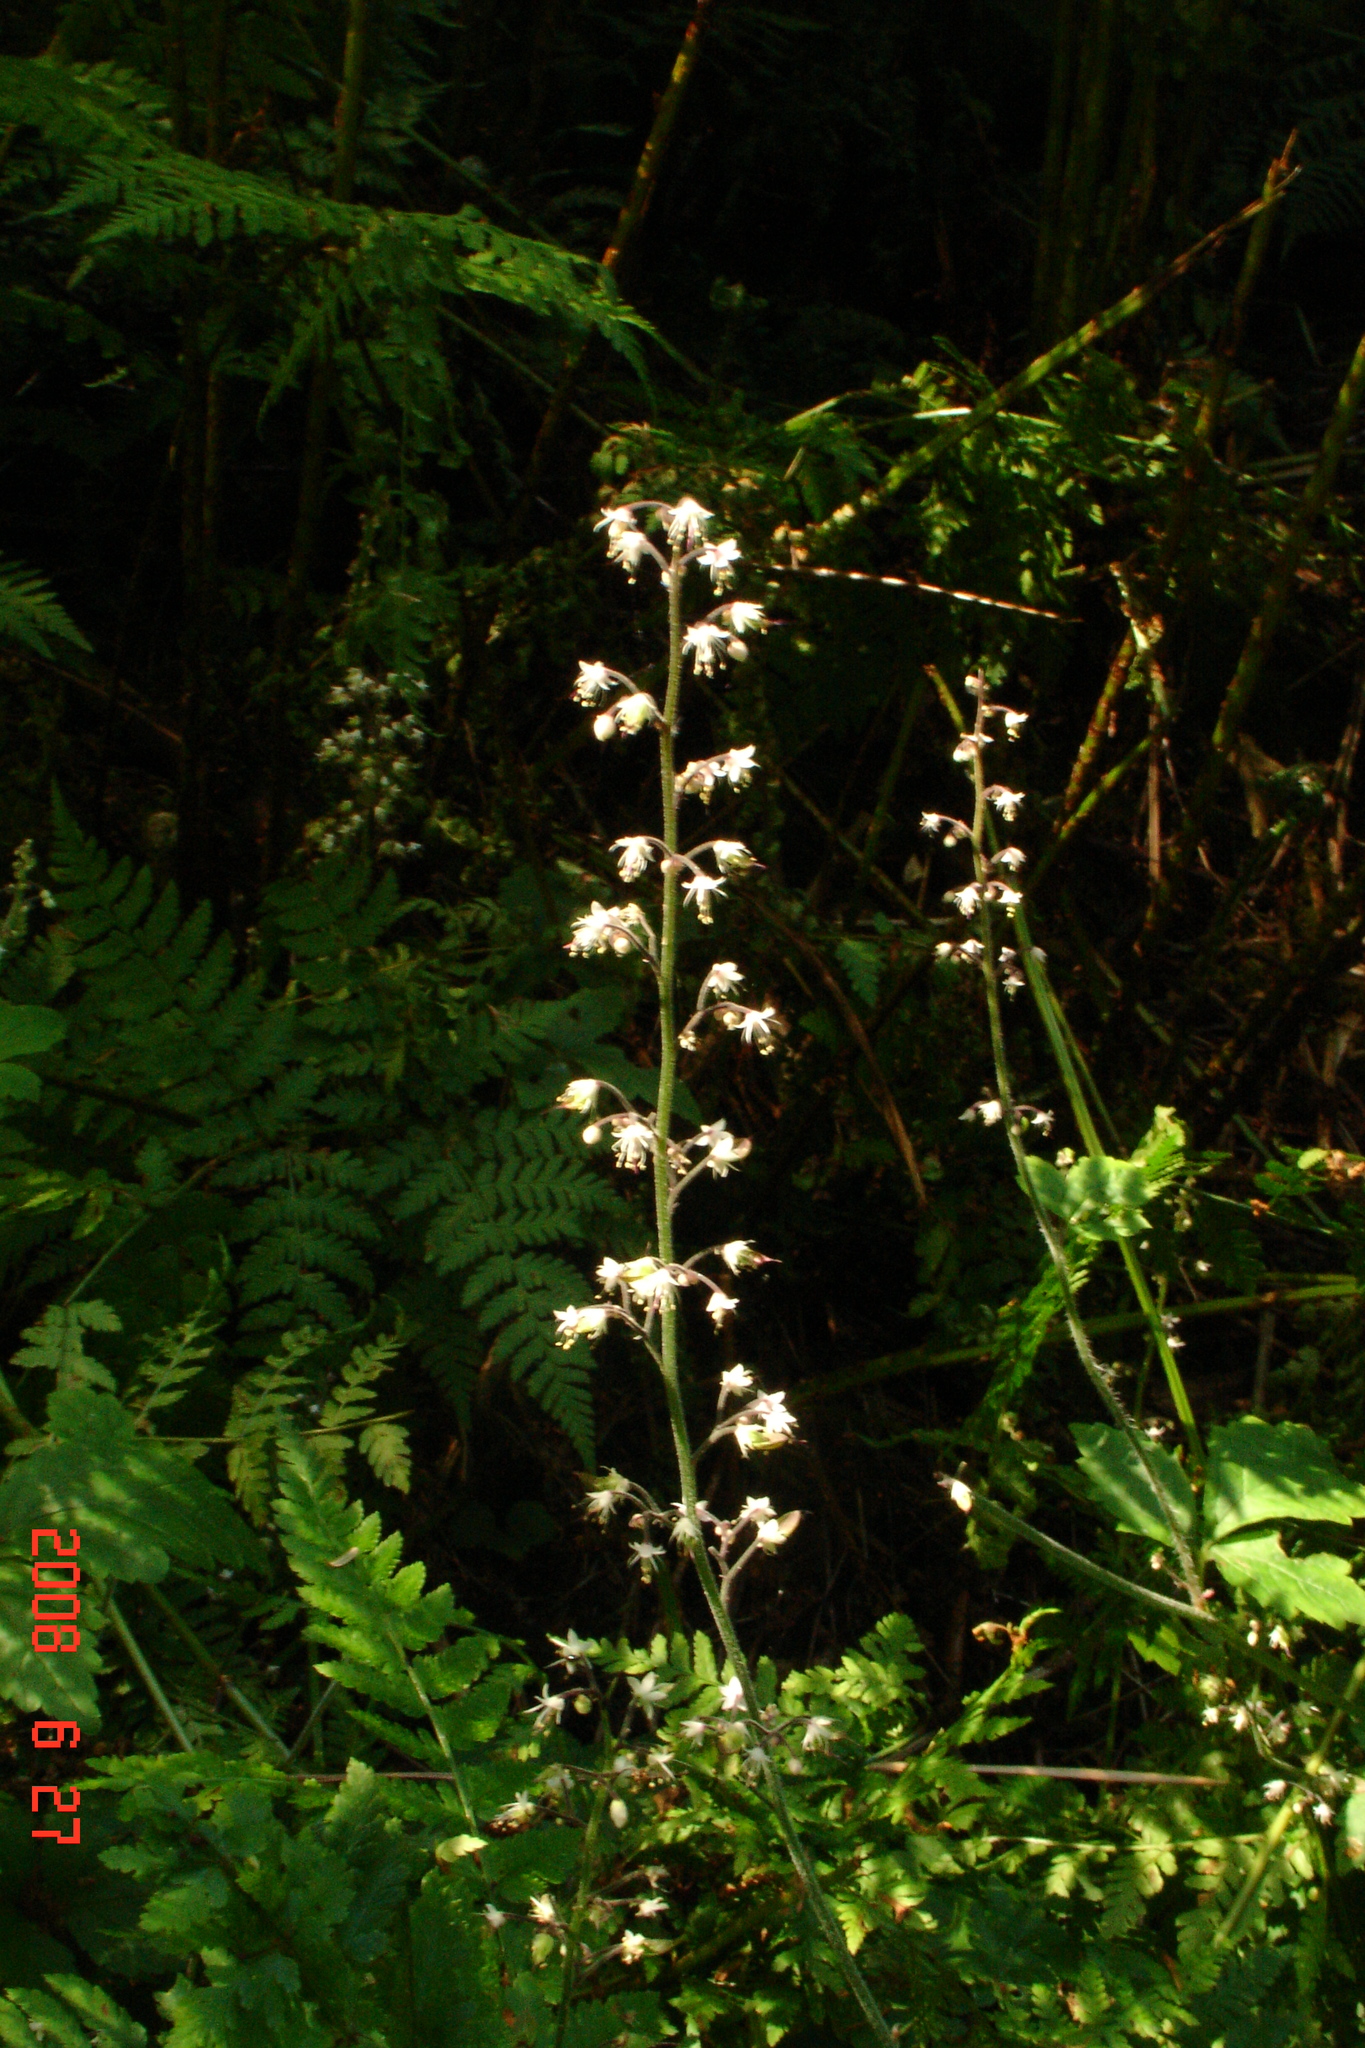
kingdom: Plantae
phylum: Tracheophyta
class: Magnoliopsida
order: Saxifragales
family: Saxifragaceae
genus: Tiarella
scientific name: Tiarella trifoliata
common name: Sugar-scoop
